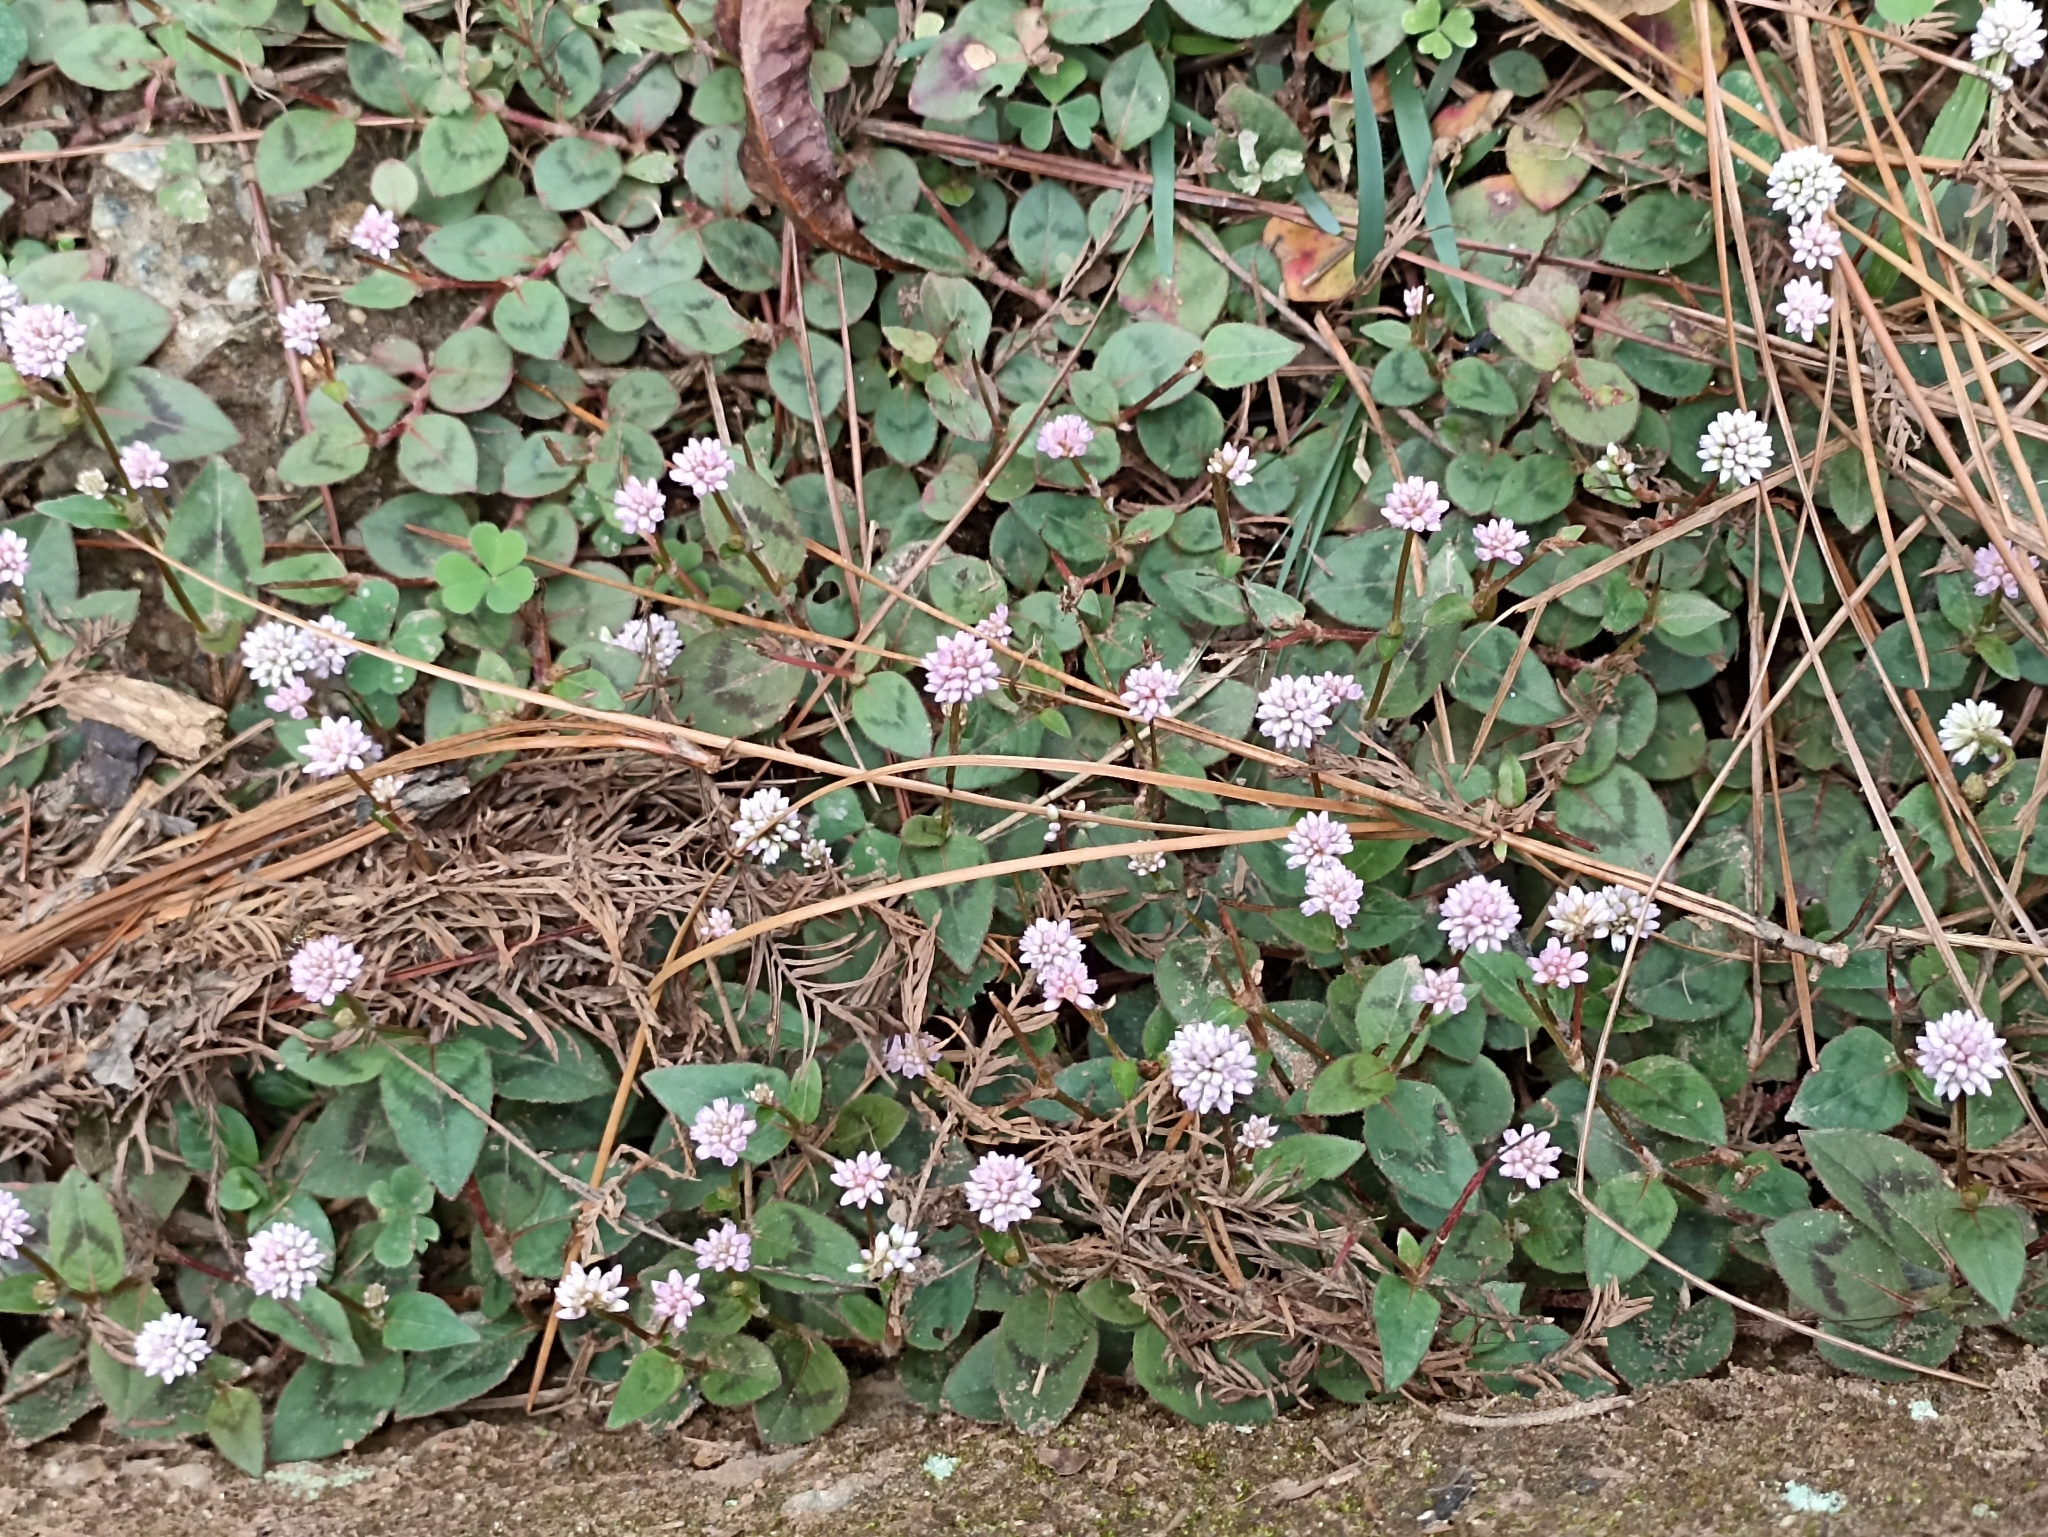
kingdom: Plantae
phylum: Tracheophyta
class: Magnoliopsida
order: Caryophyllales
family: Polygonaceae
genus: Persicaria
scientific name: Persicaria capitata
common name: Pinkhead smartweed
